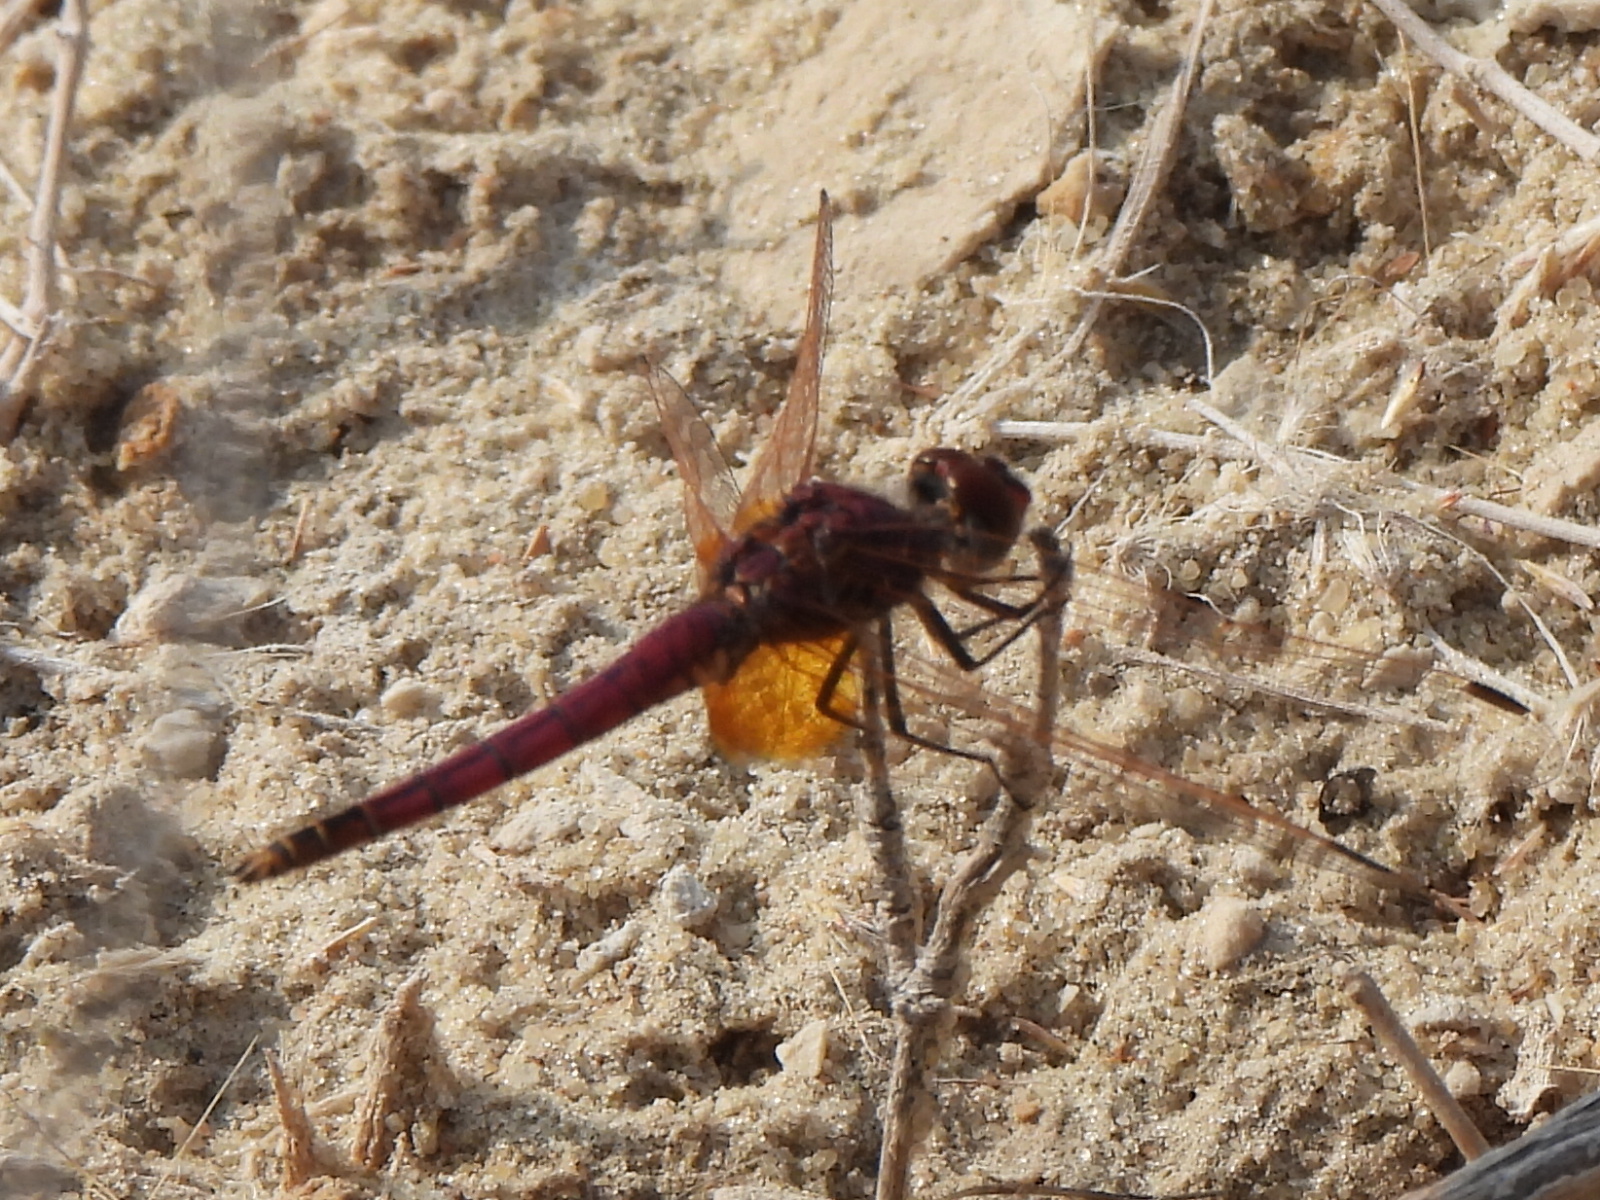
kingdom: Animalia
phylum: Arthropoda
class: Insecta
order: Odonata
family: Libellulidae
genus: Trithemis
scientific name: Trithemis annulata
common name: Violet dropwing
